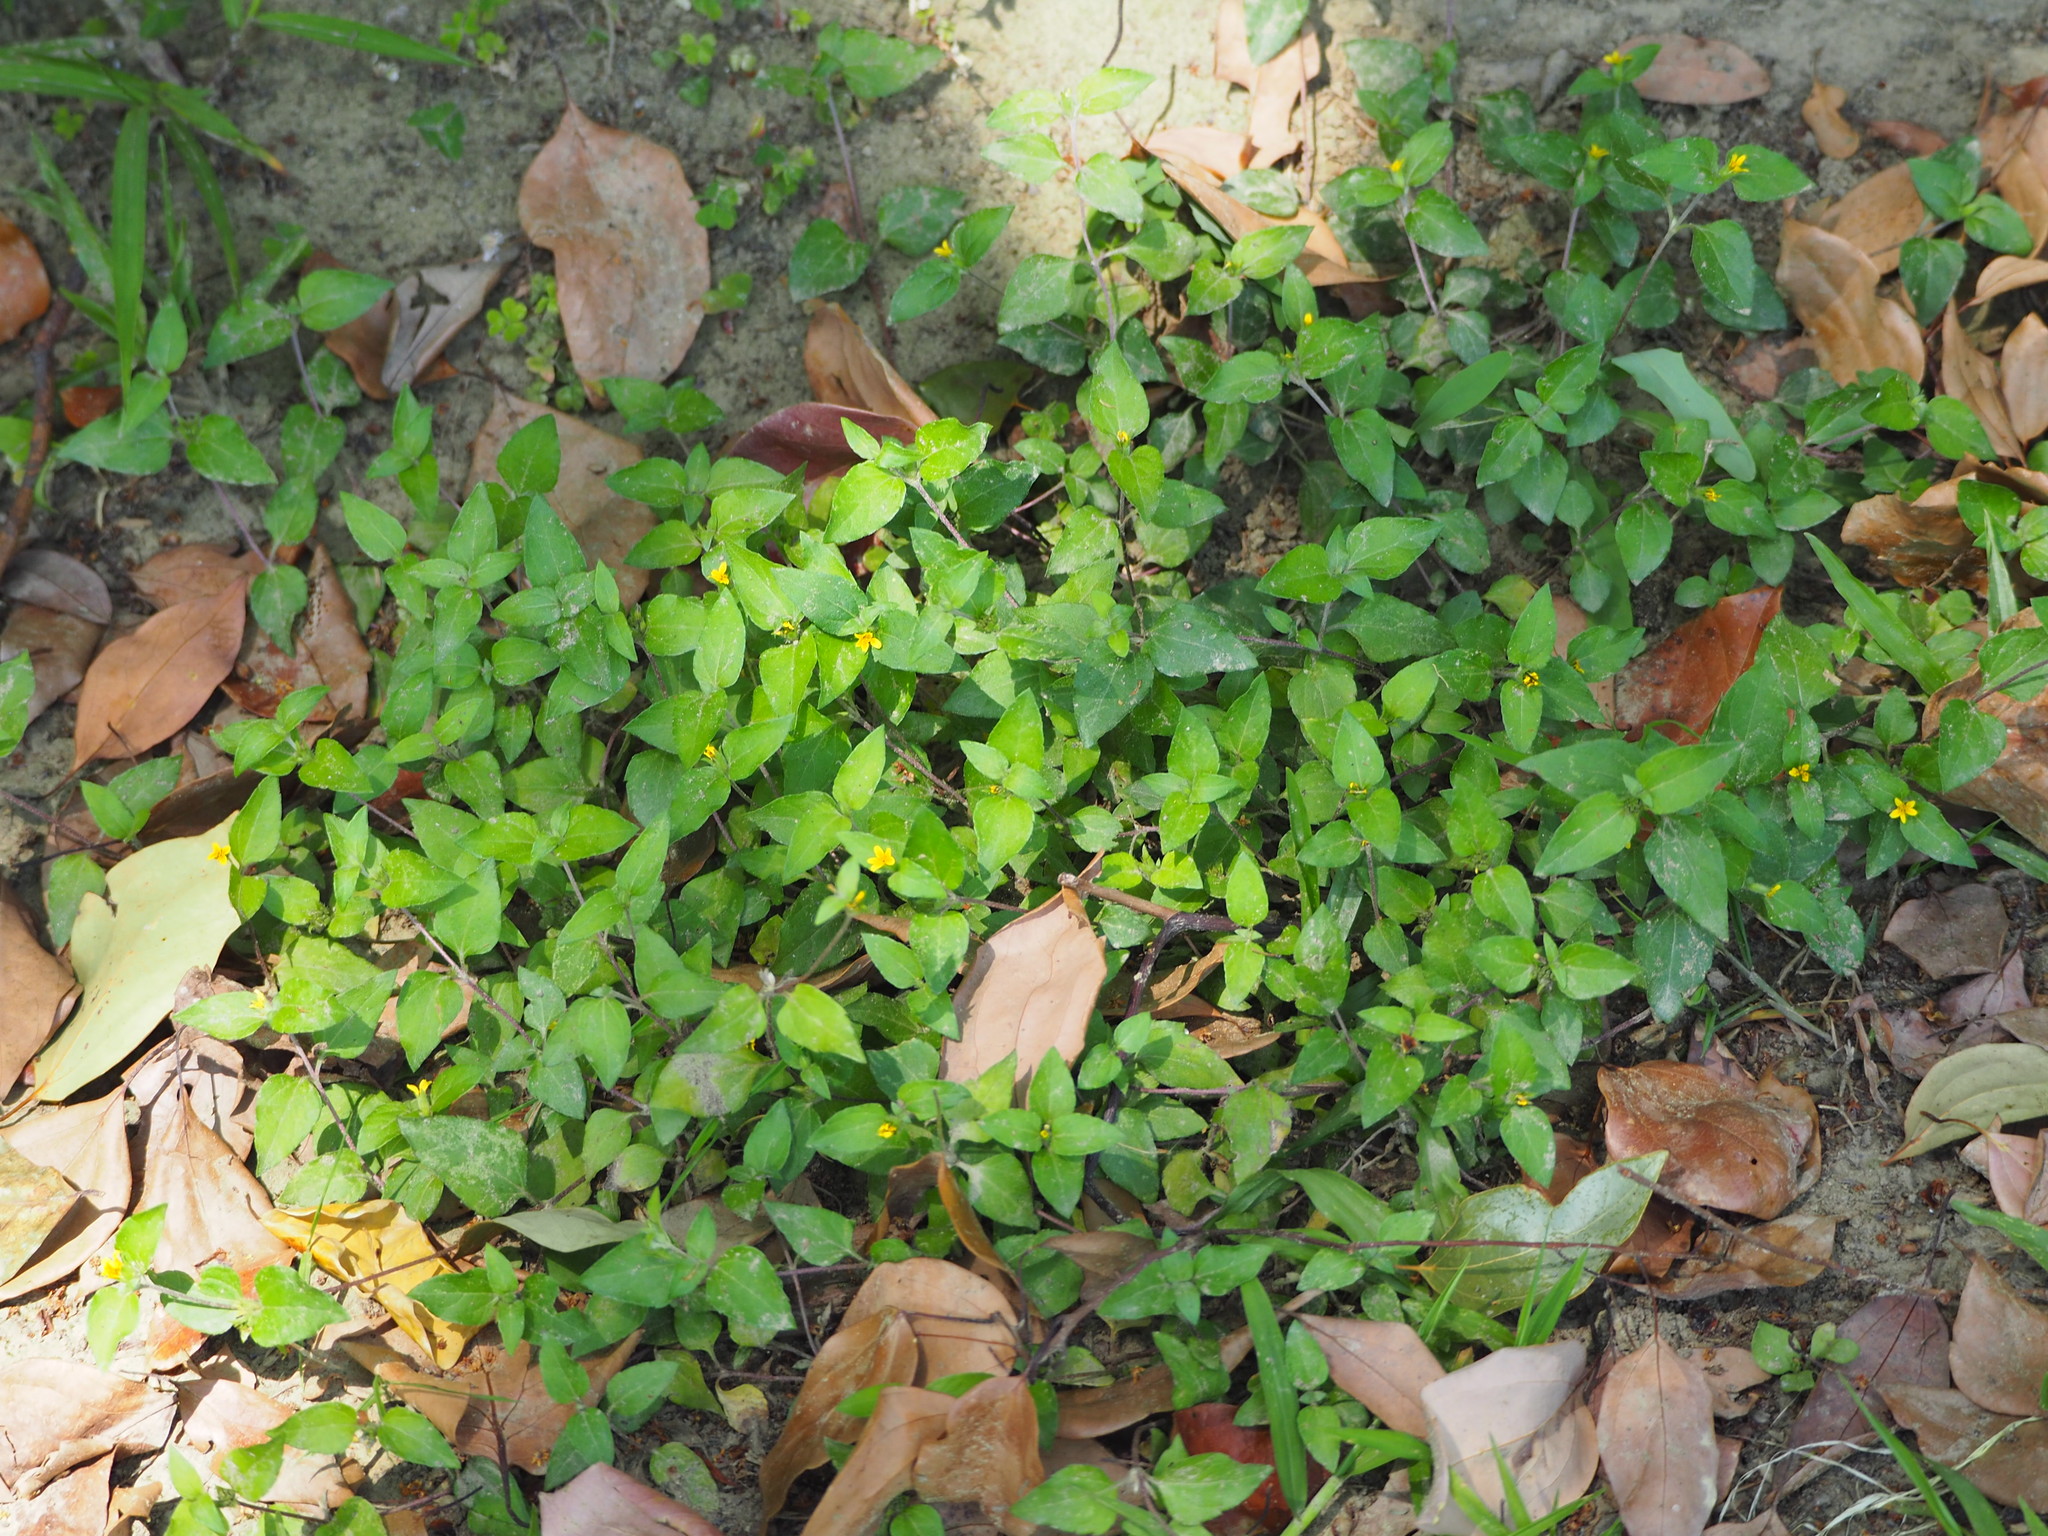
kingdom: Plantae
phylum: Tracheophyta
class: Magnoliopsida
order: Asterales
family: Asteraceae
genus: Calyptocarpus
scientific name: Calyptocarpus vialis
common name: Straggler daisy
